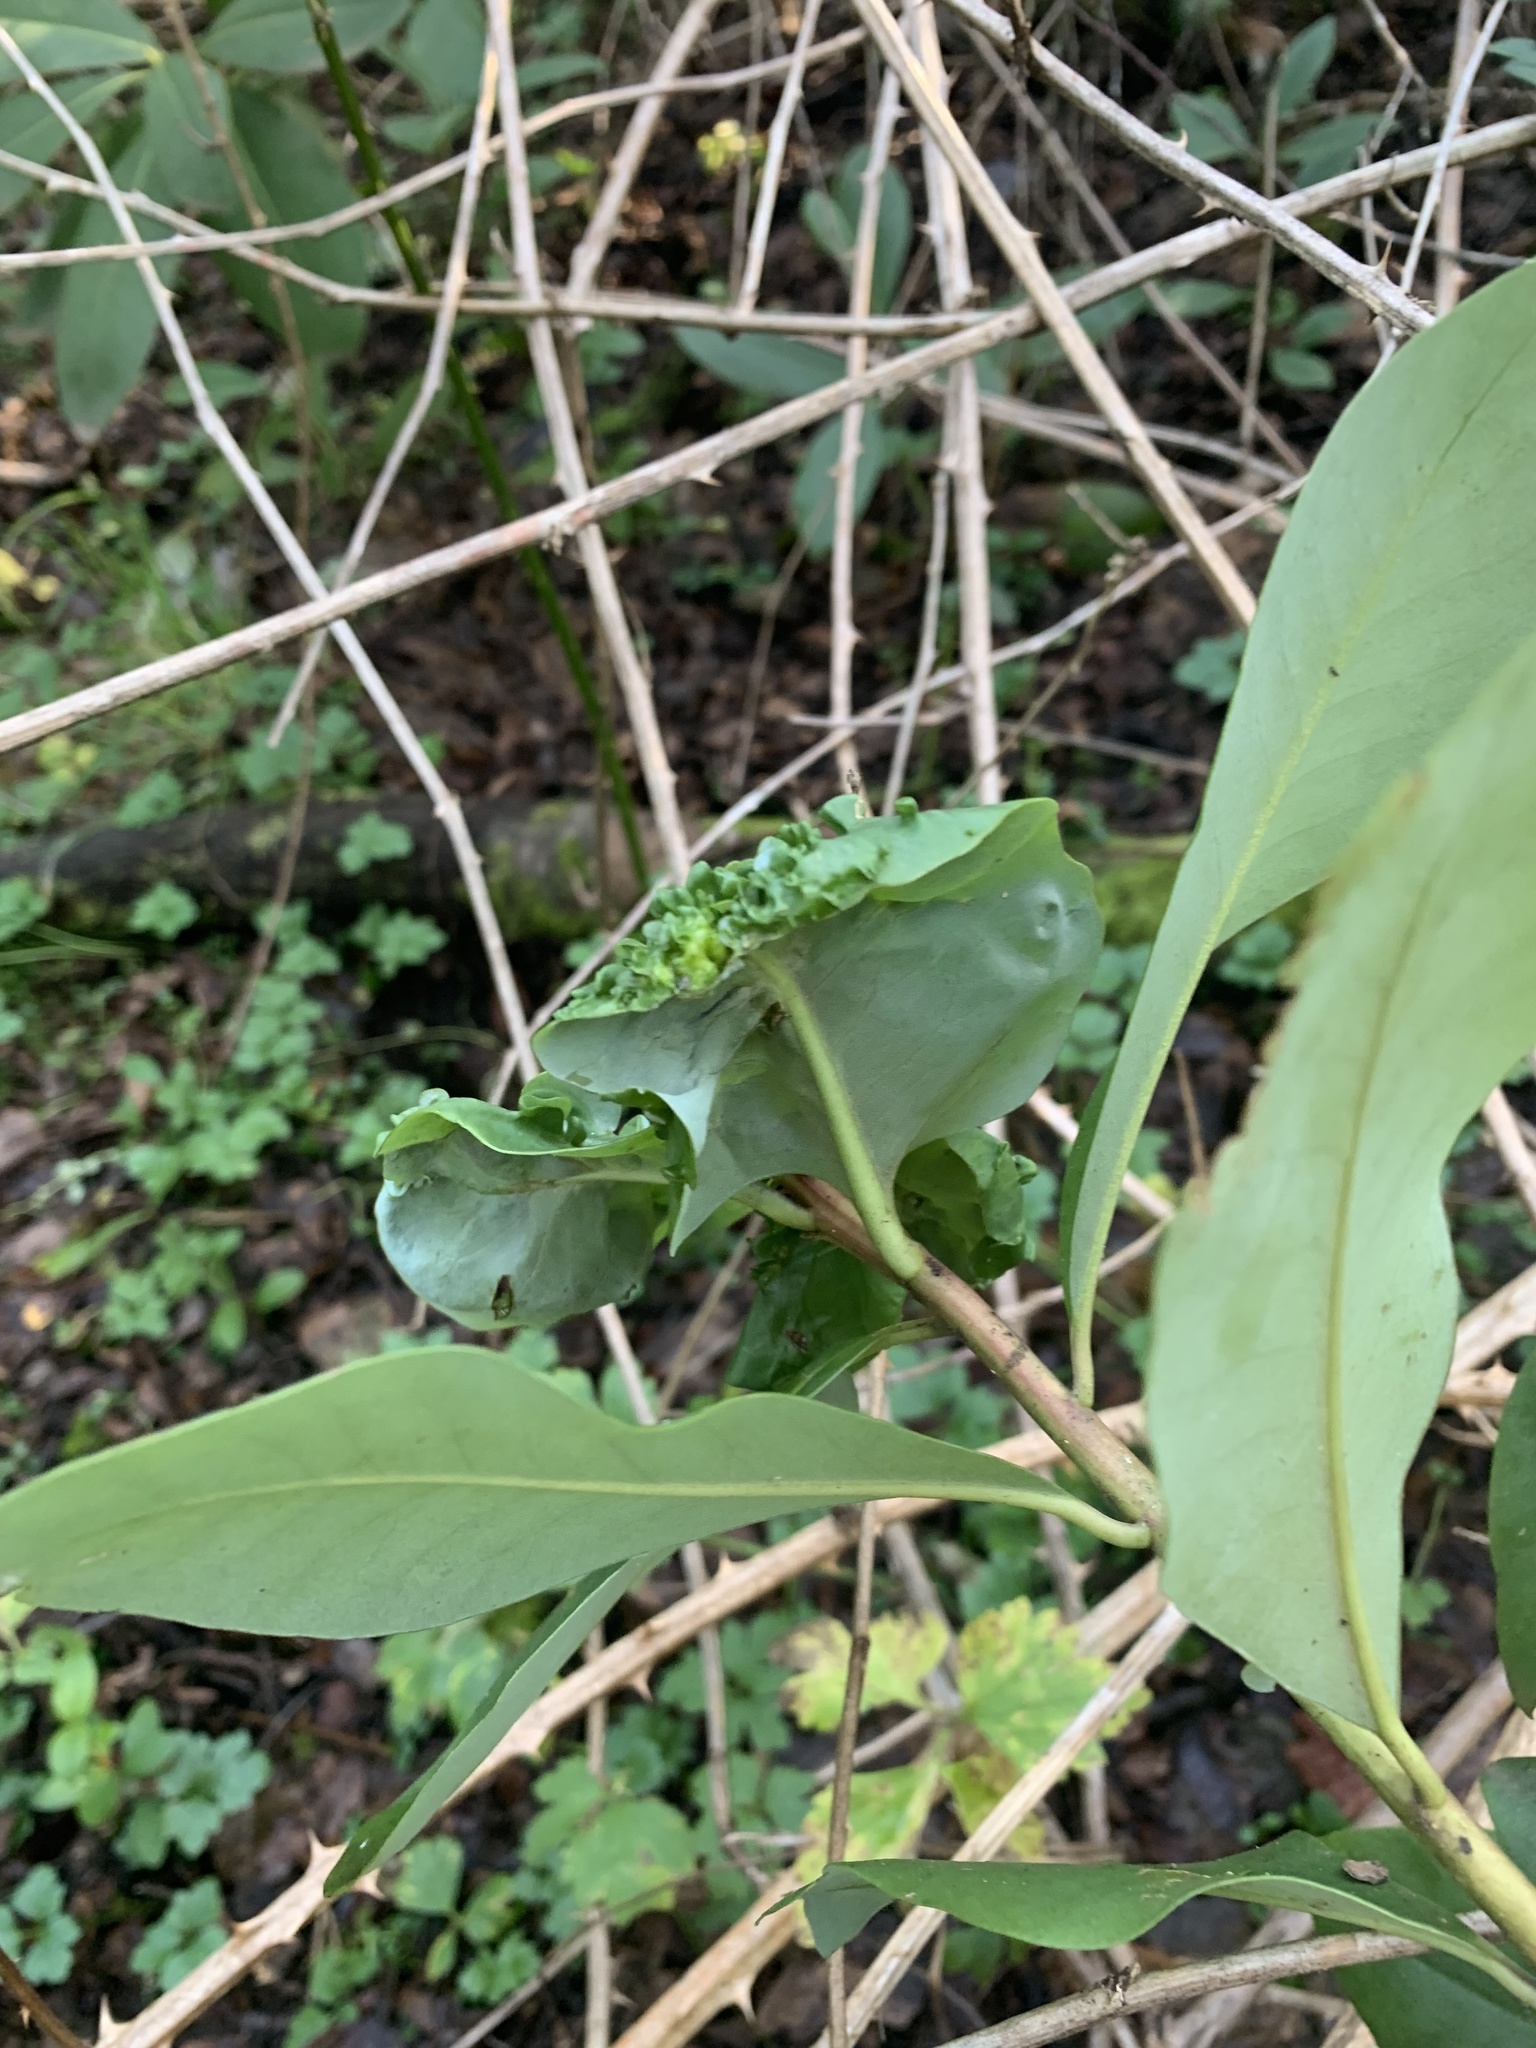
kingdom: Plantae
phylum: Tracheophyta
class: Magnoliopsida
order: Canellales
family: Winteraceae
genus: Drimys
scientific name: Drimys winteri
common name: Winter's-bark
